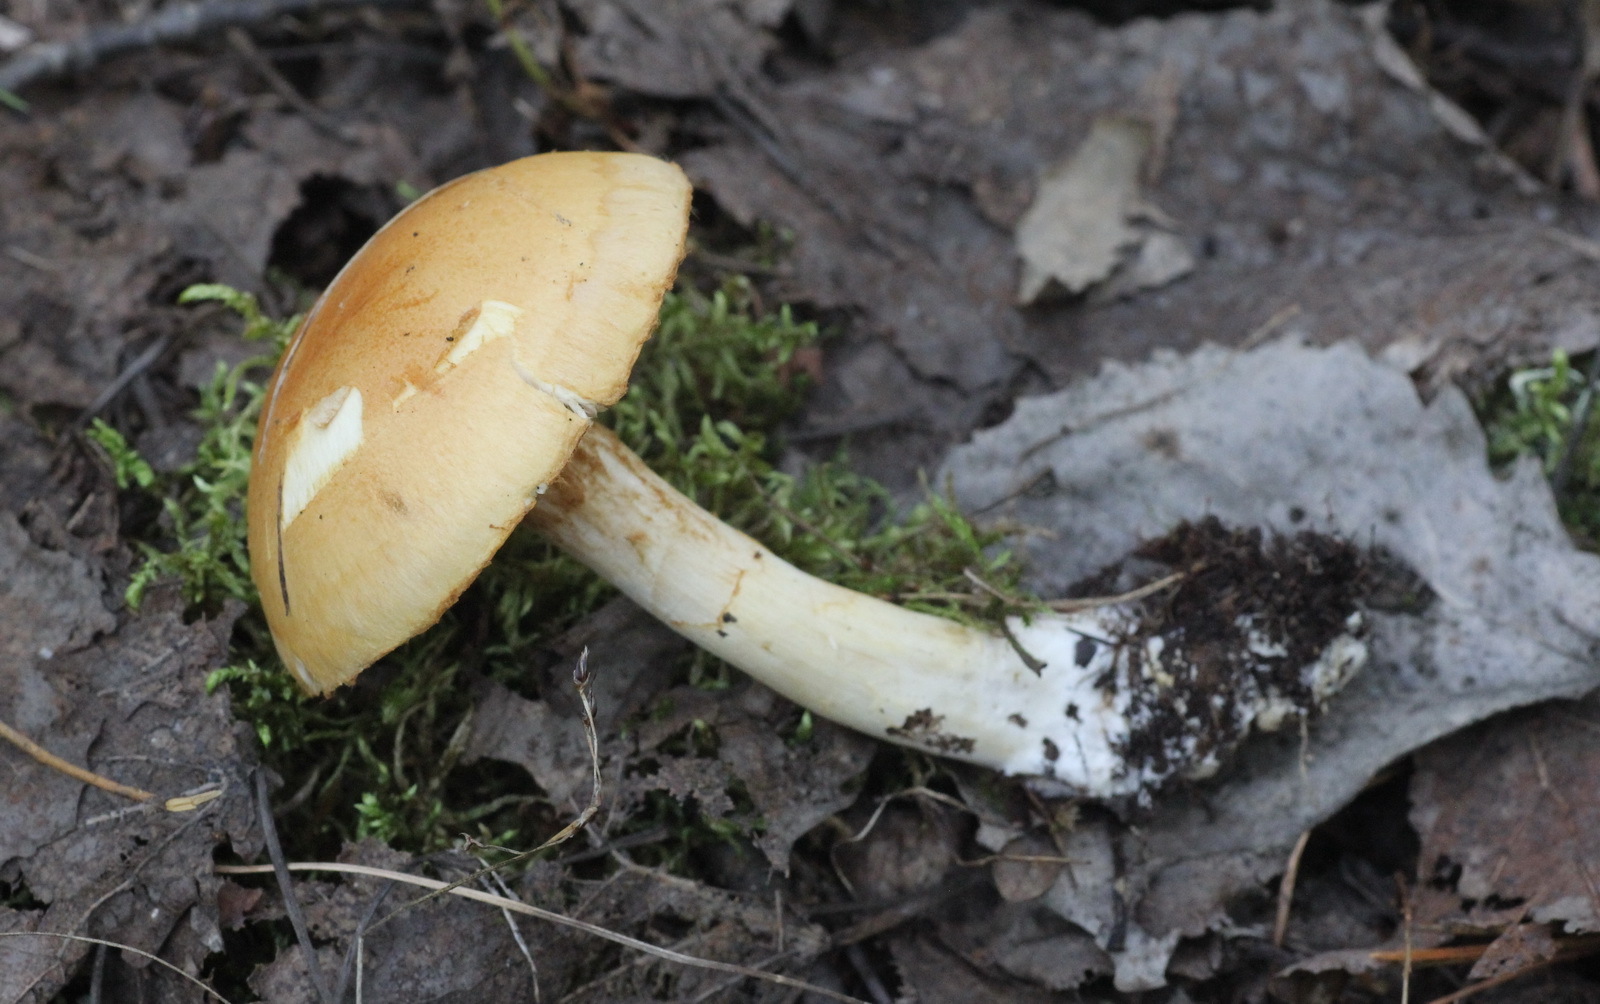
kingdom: Fungi
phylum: Basidiomycota
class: Agaricomycetes
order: Agaricales
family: Cortinariaceae
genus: Thaxterogaster
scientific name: Thaxterogaster talus
